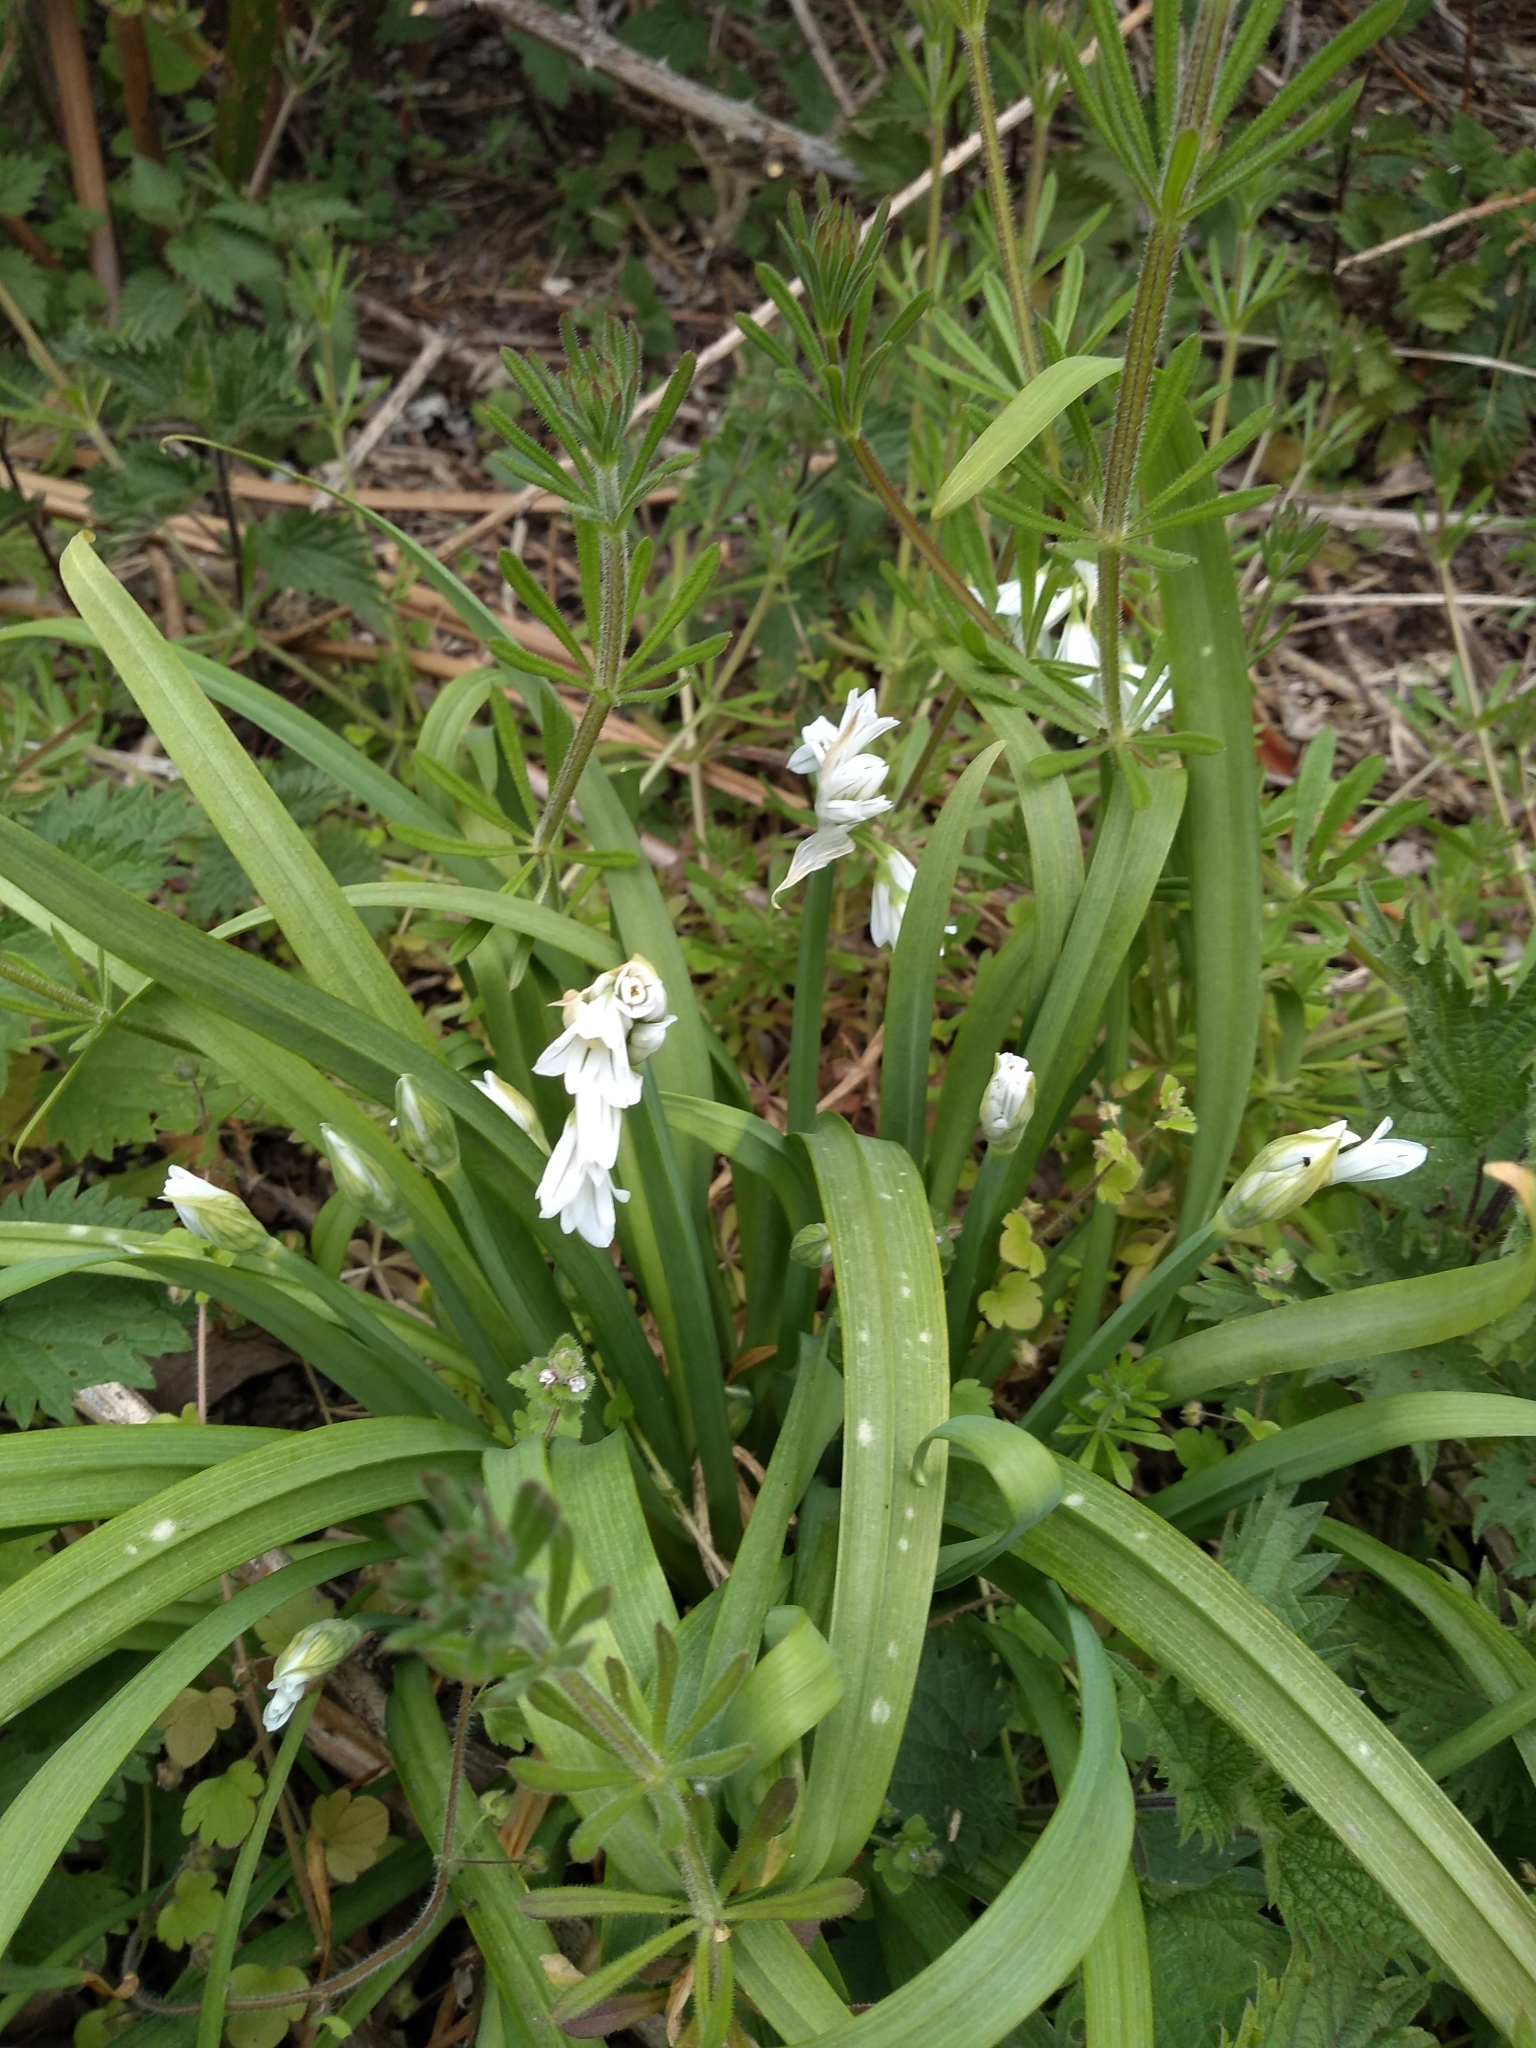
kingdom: Plantae
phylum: Tracheophyta
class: Liliopsida
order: Asparagales
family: Amaryllidaceae
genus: Allium
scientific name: Allium triquetrum
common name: Three-cornered garlic
